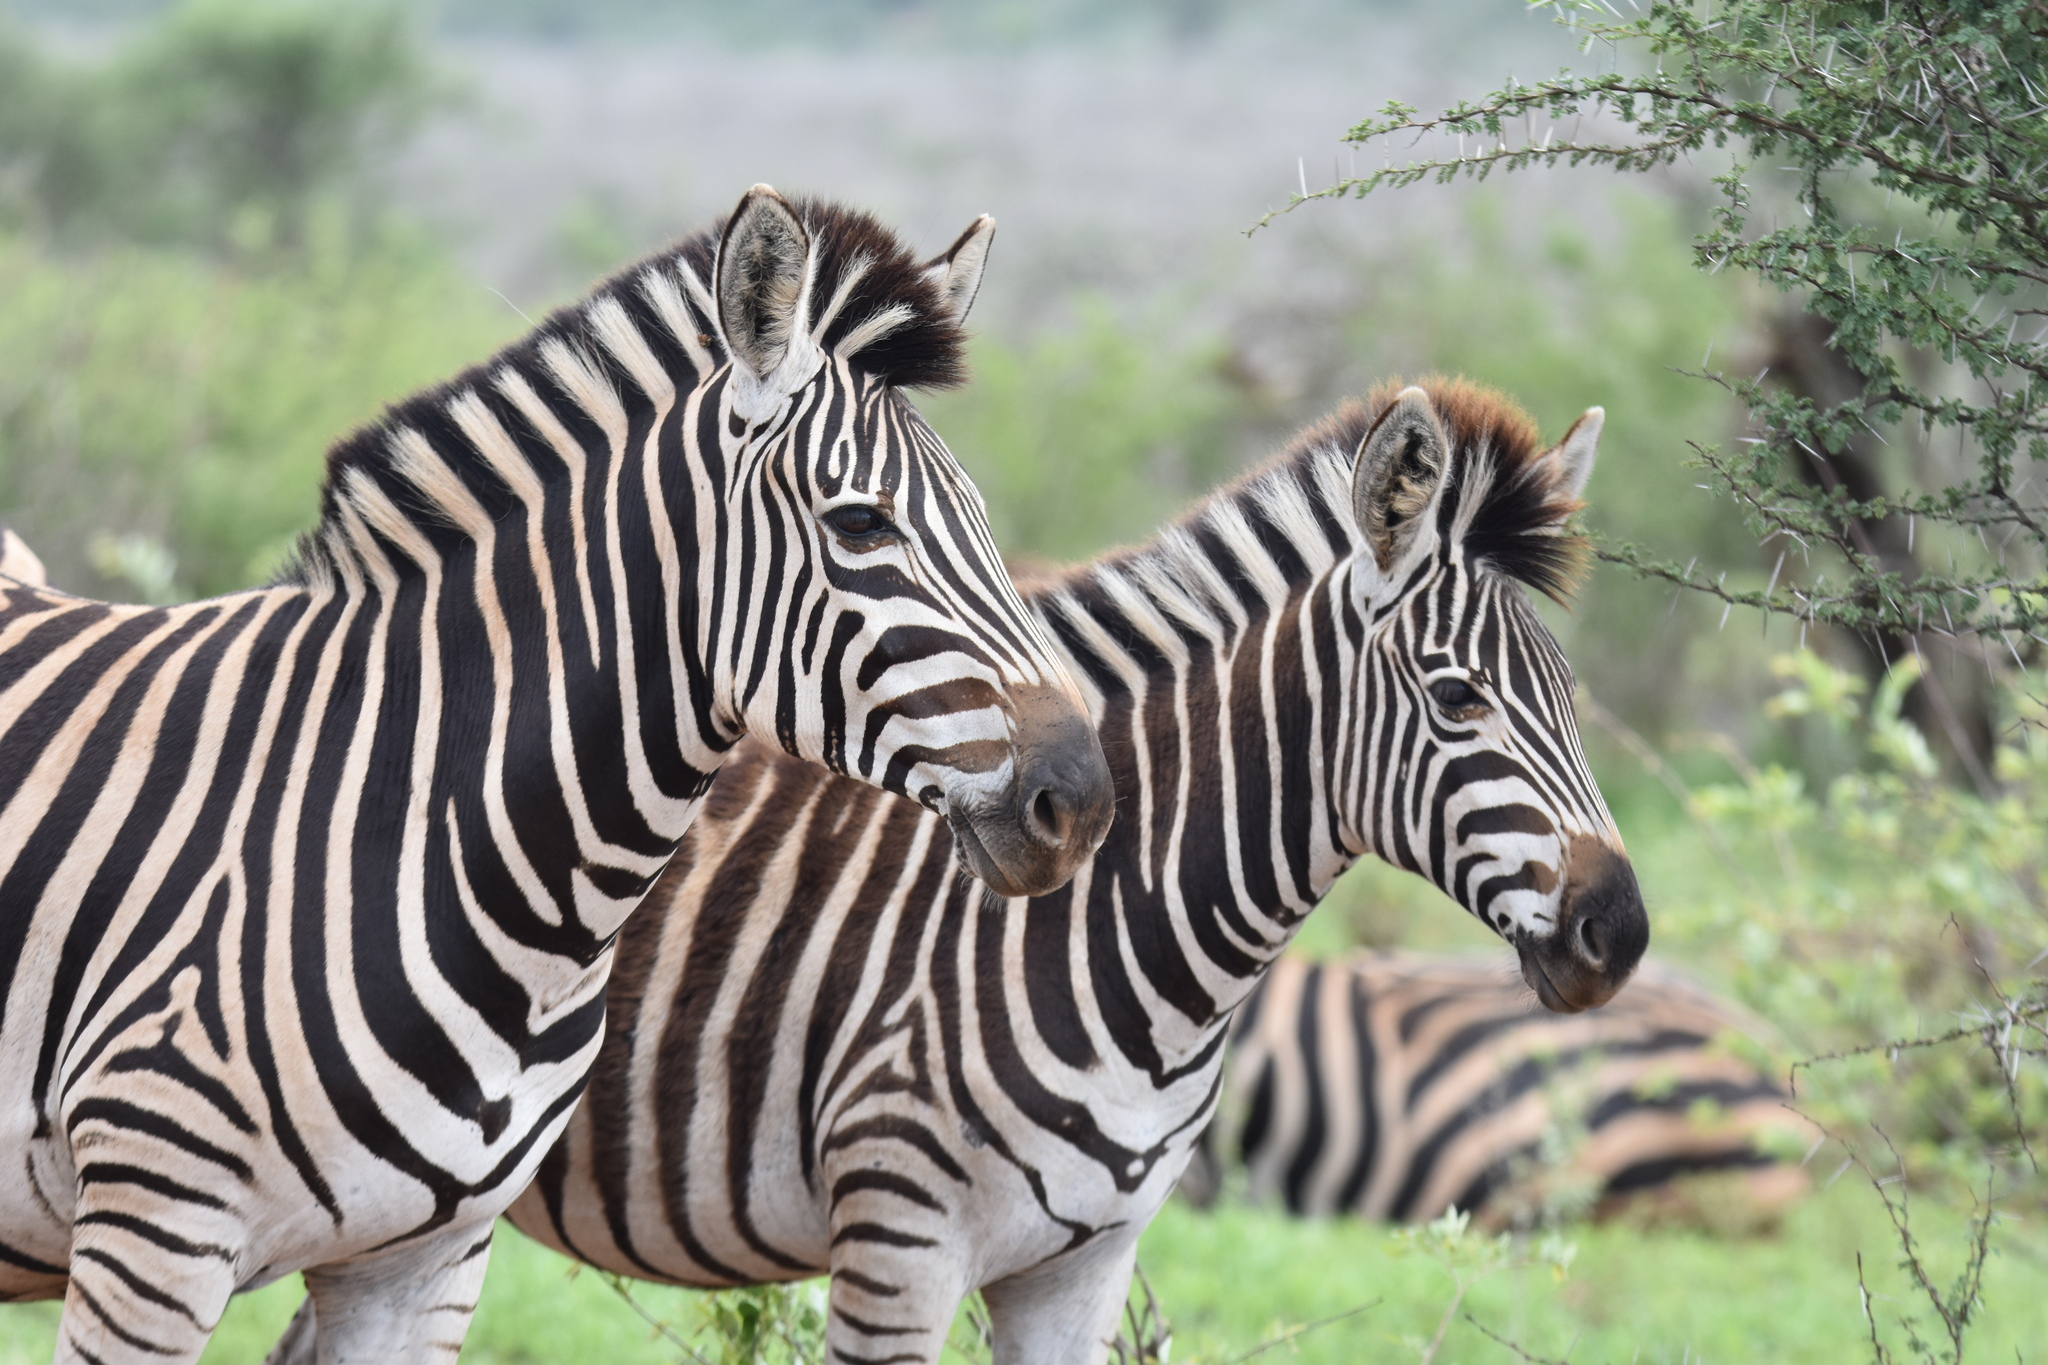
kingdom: Animalia
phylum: Chordata
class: Mammalia
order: Perissodactyla
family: Equidae
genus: Equus
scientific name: Equus quagga
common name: Plains zebra
